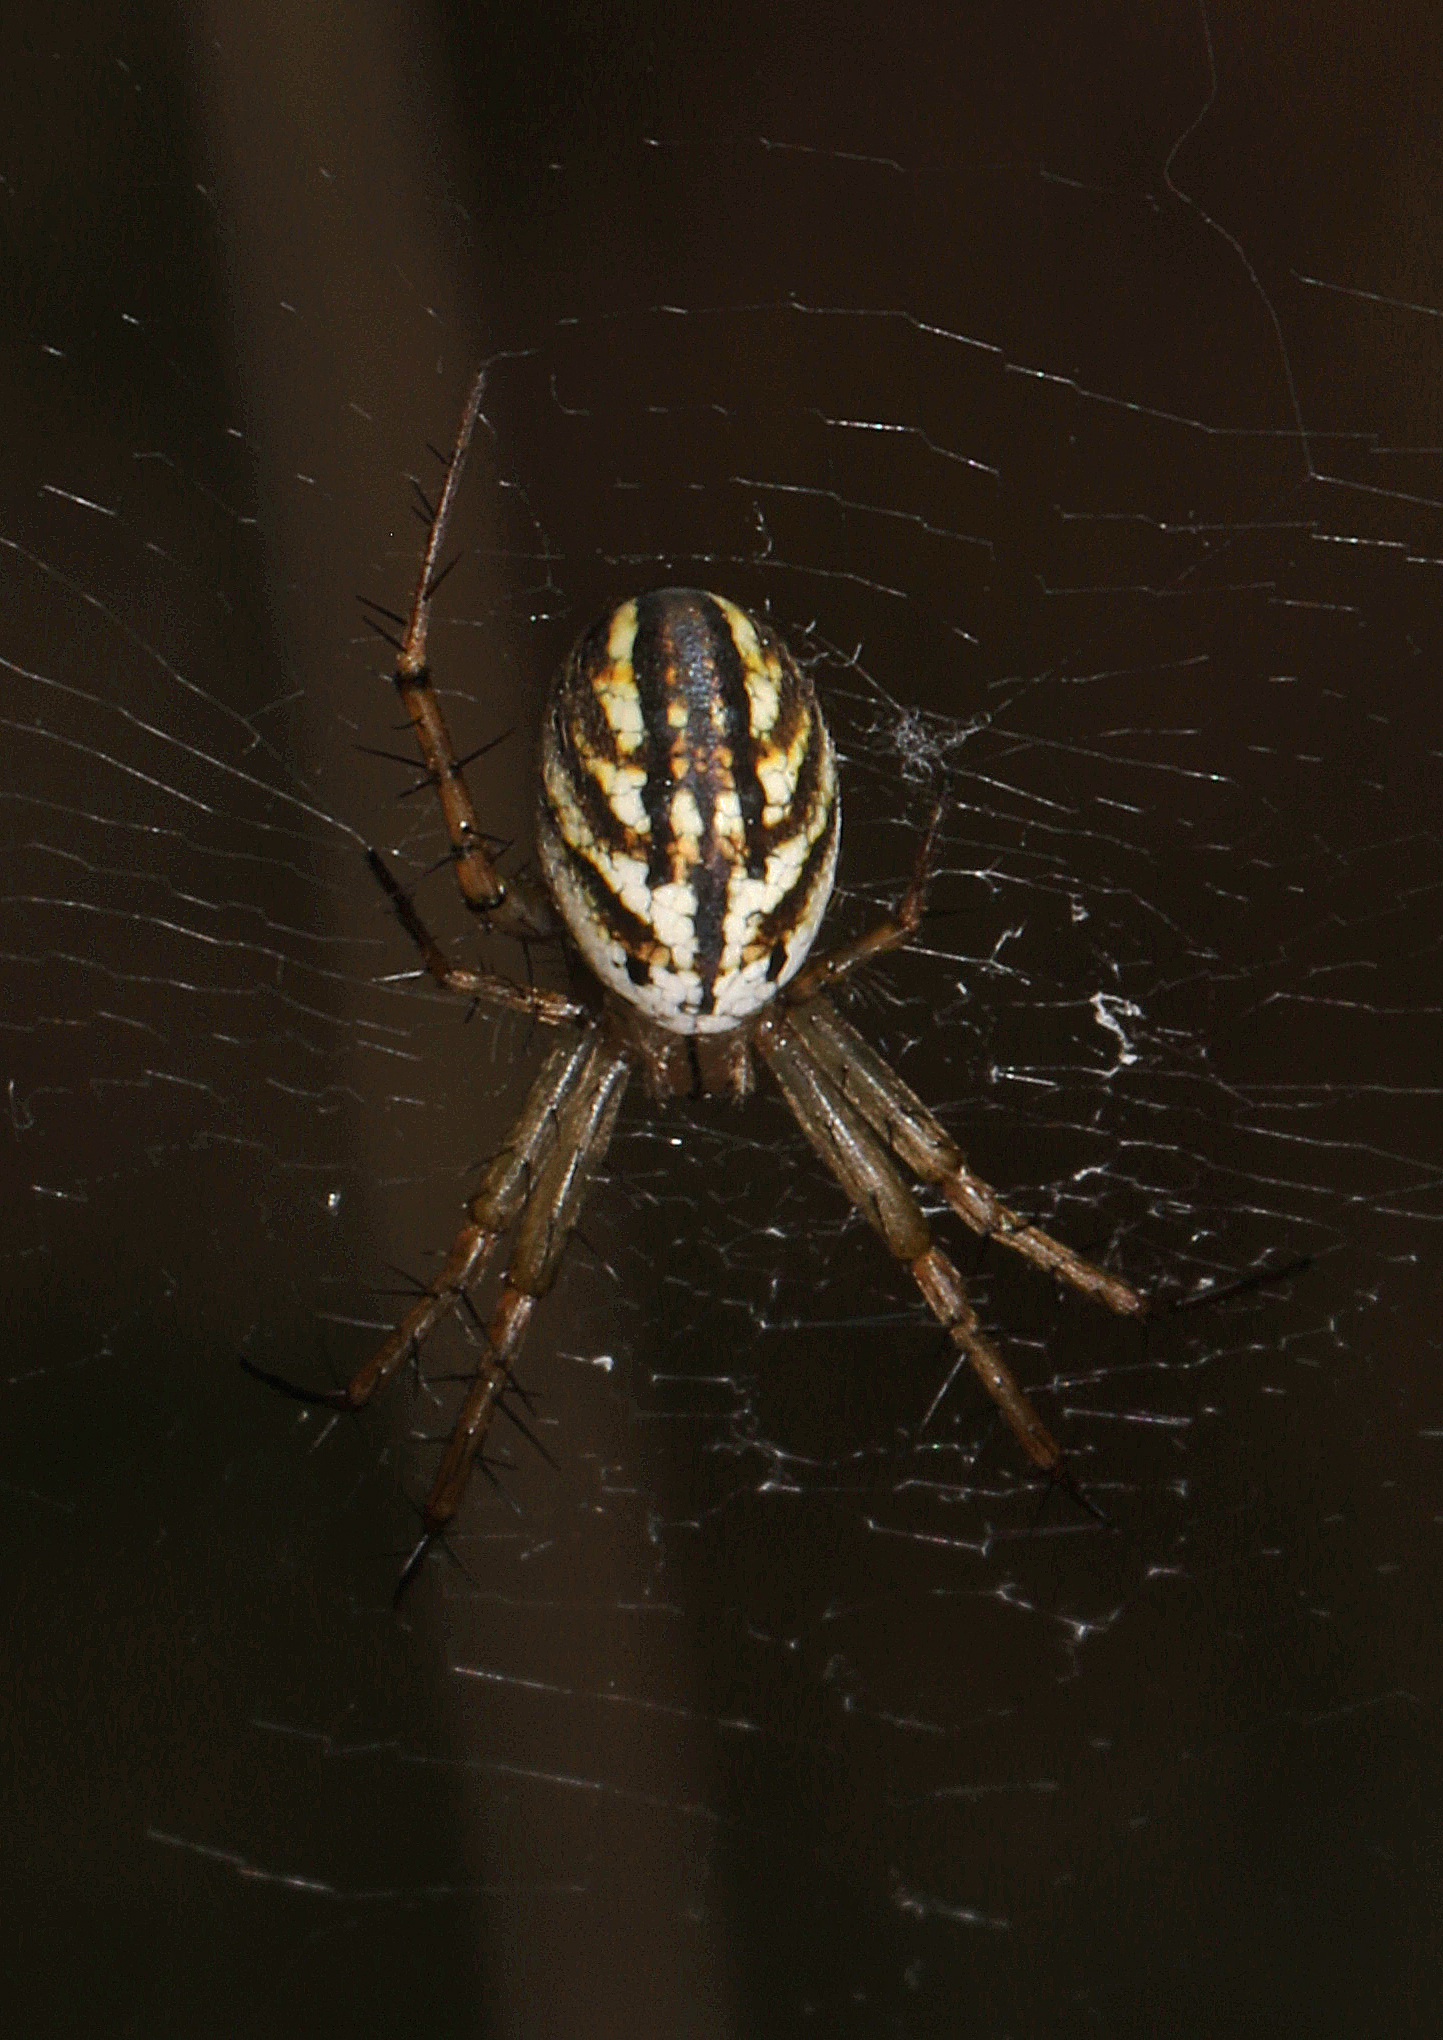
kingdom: Animalia
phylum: Arthropoda
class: Arachnida
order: Araneae
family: Araneidae
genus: Mangora
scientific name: Mangora gibberosa
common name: Lined orbweaver
